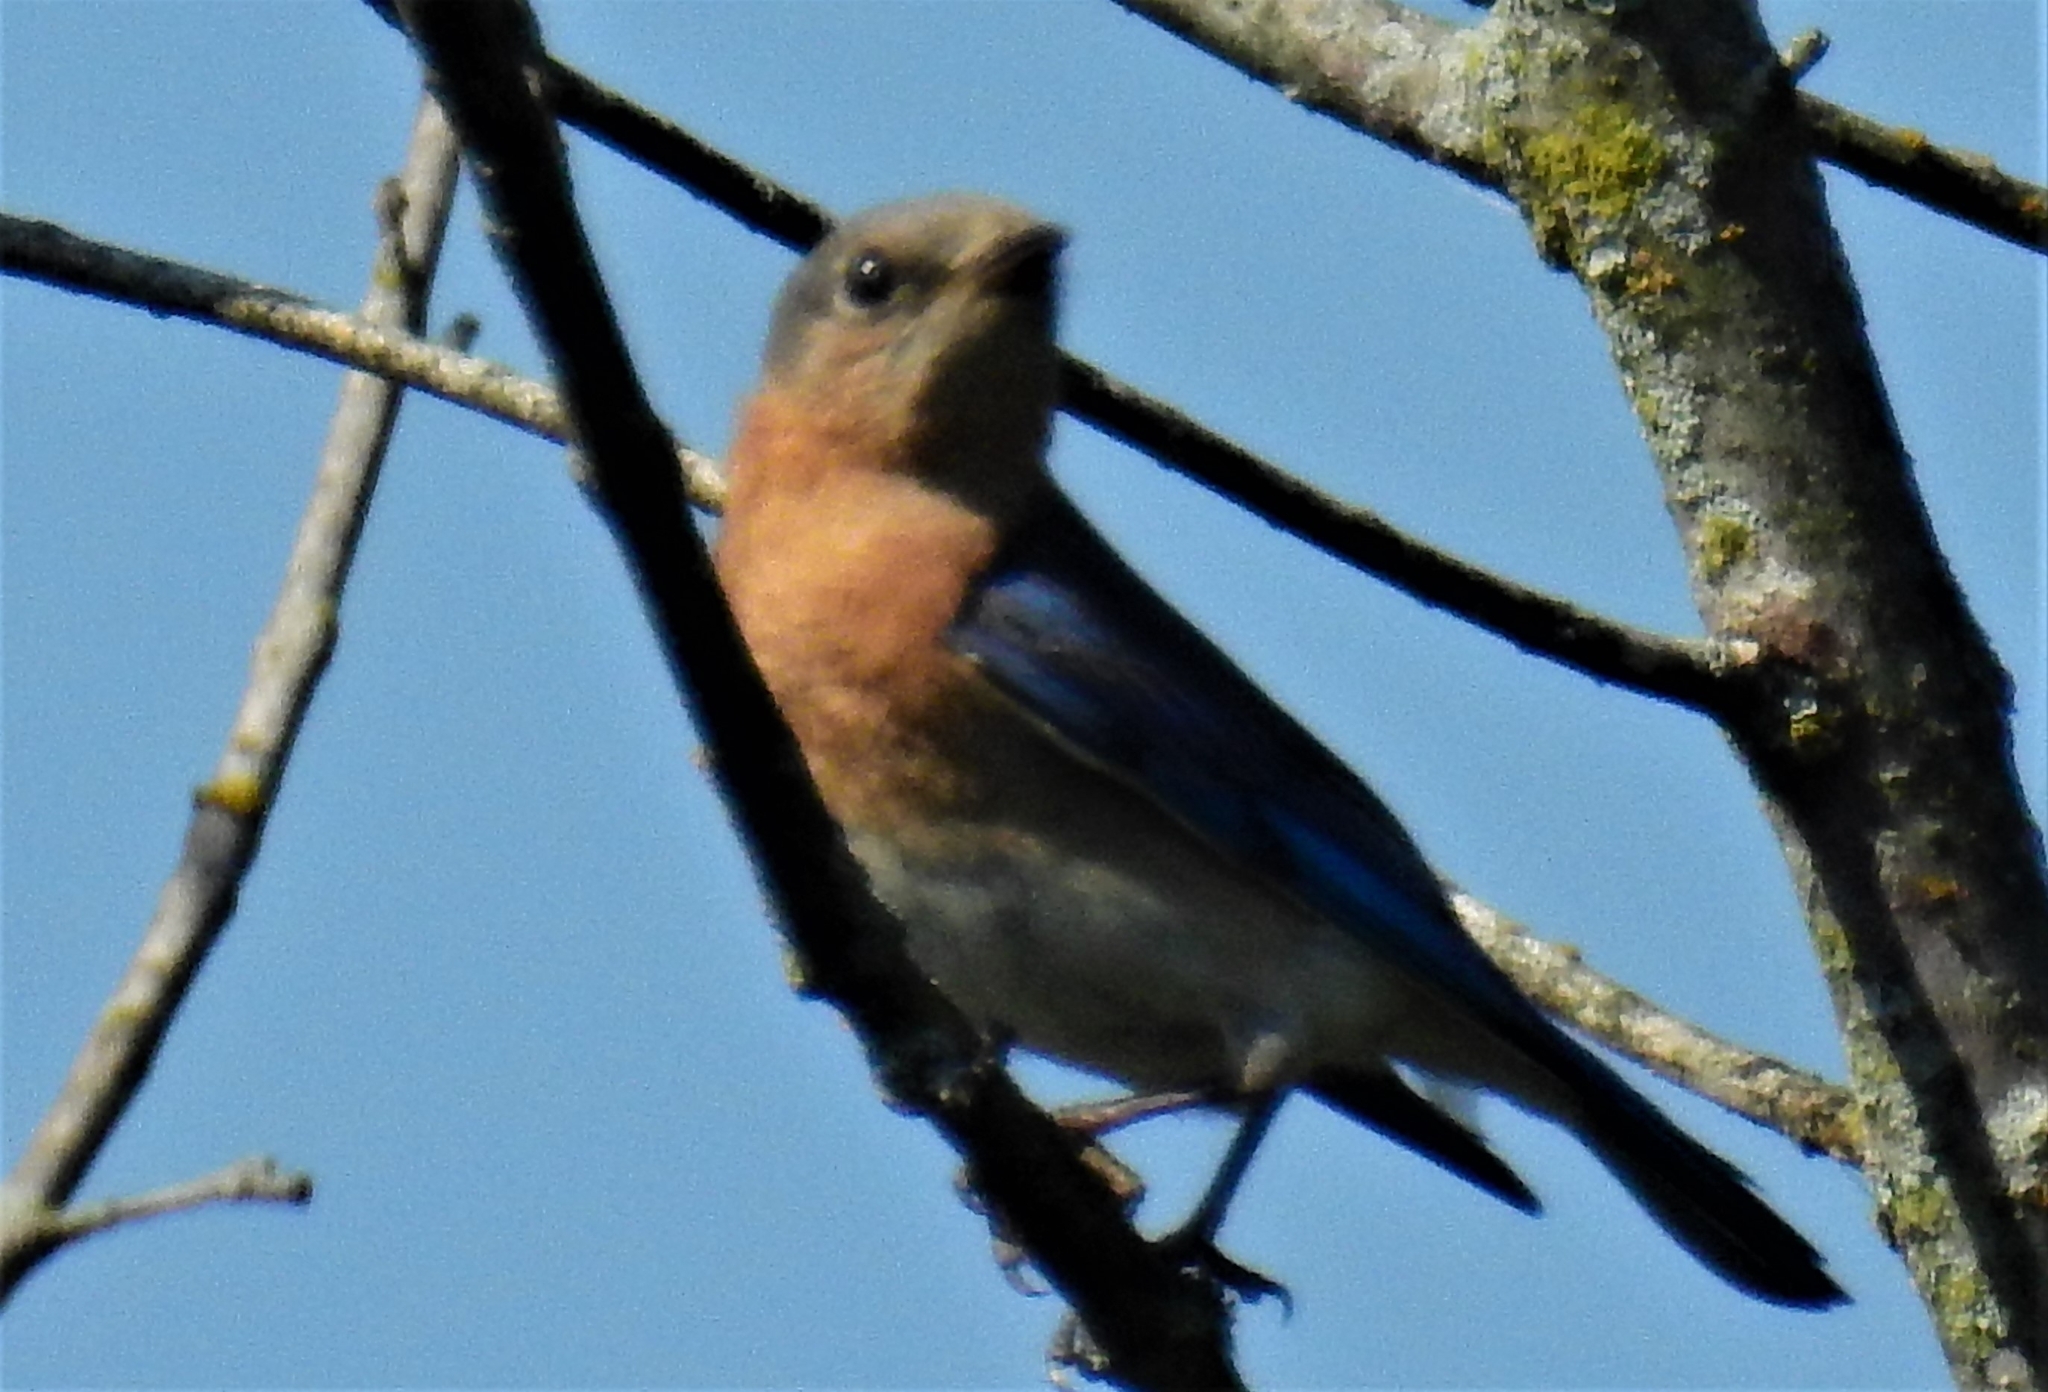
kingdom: Animalia
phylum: Chordata
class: Aves
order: Passeriformes
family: Turdidae
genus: Sialia
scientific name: Sialia sialis
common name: Eastern bluebird
